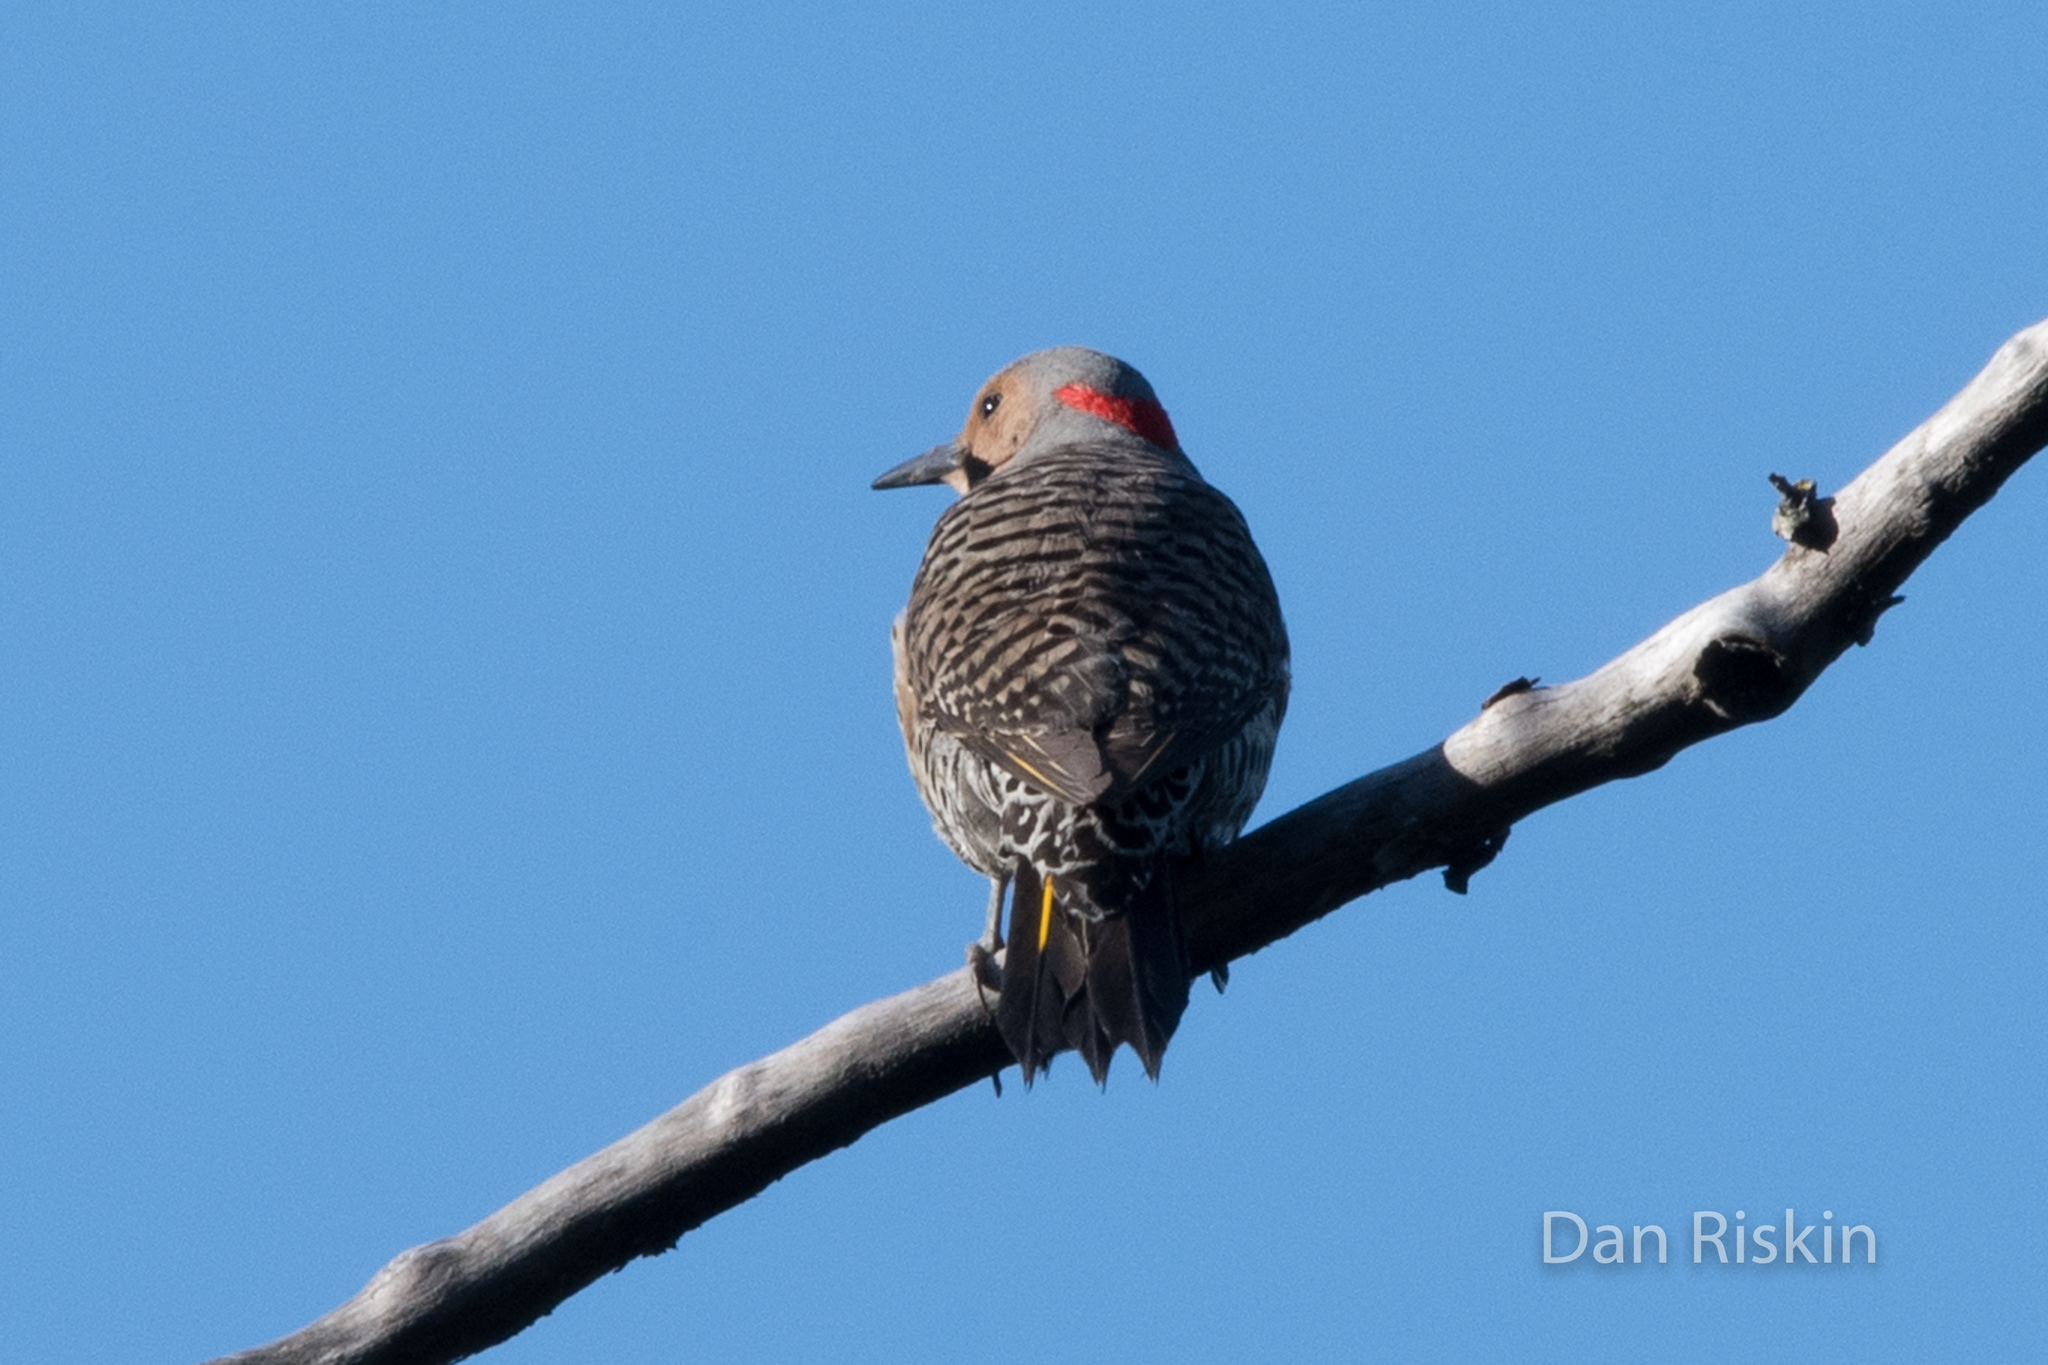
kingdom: Animalia
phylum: Chordata
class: Aves
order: Piciformes
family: Picidae
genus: Colaptes
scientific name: Colaptes auratus
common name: Northern flicker
